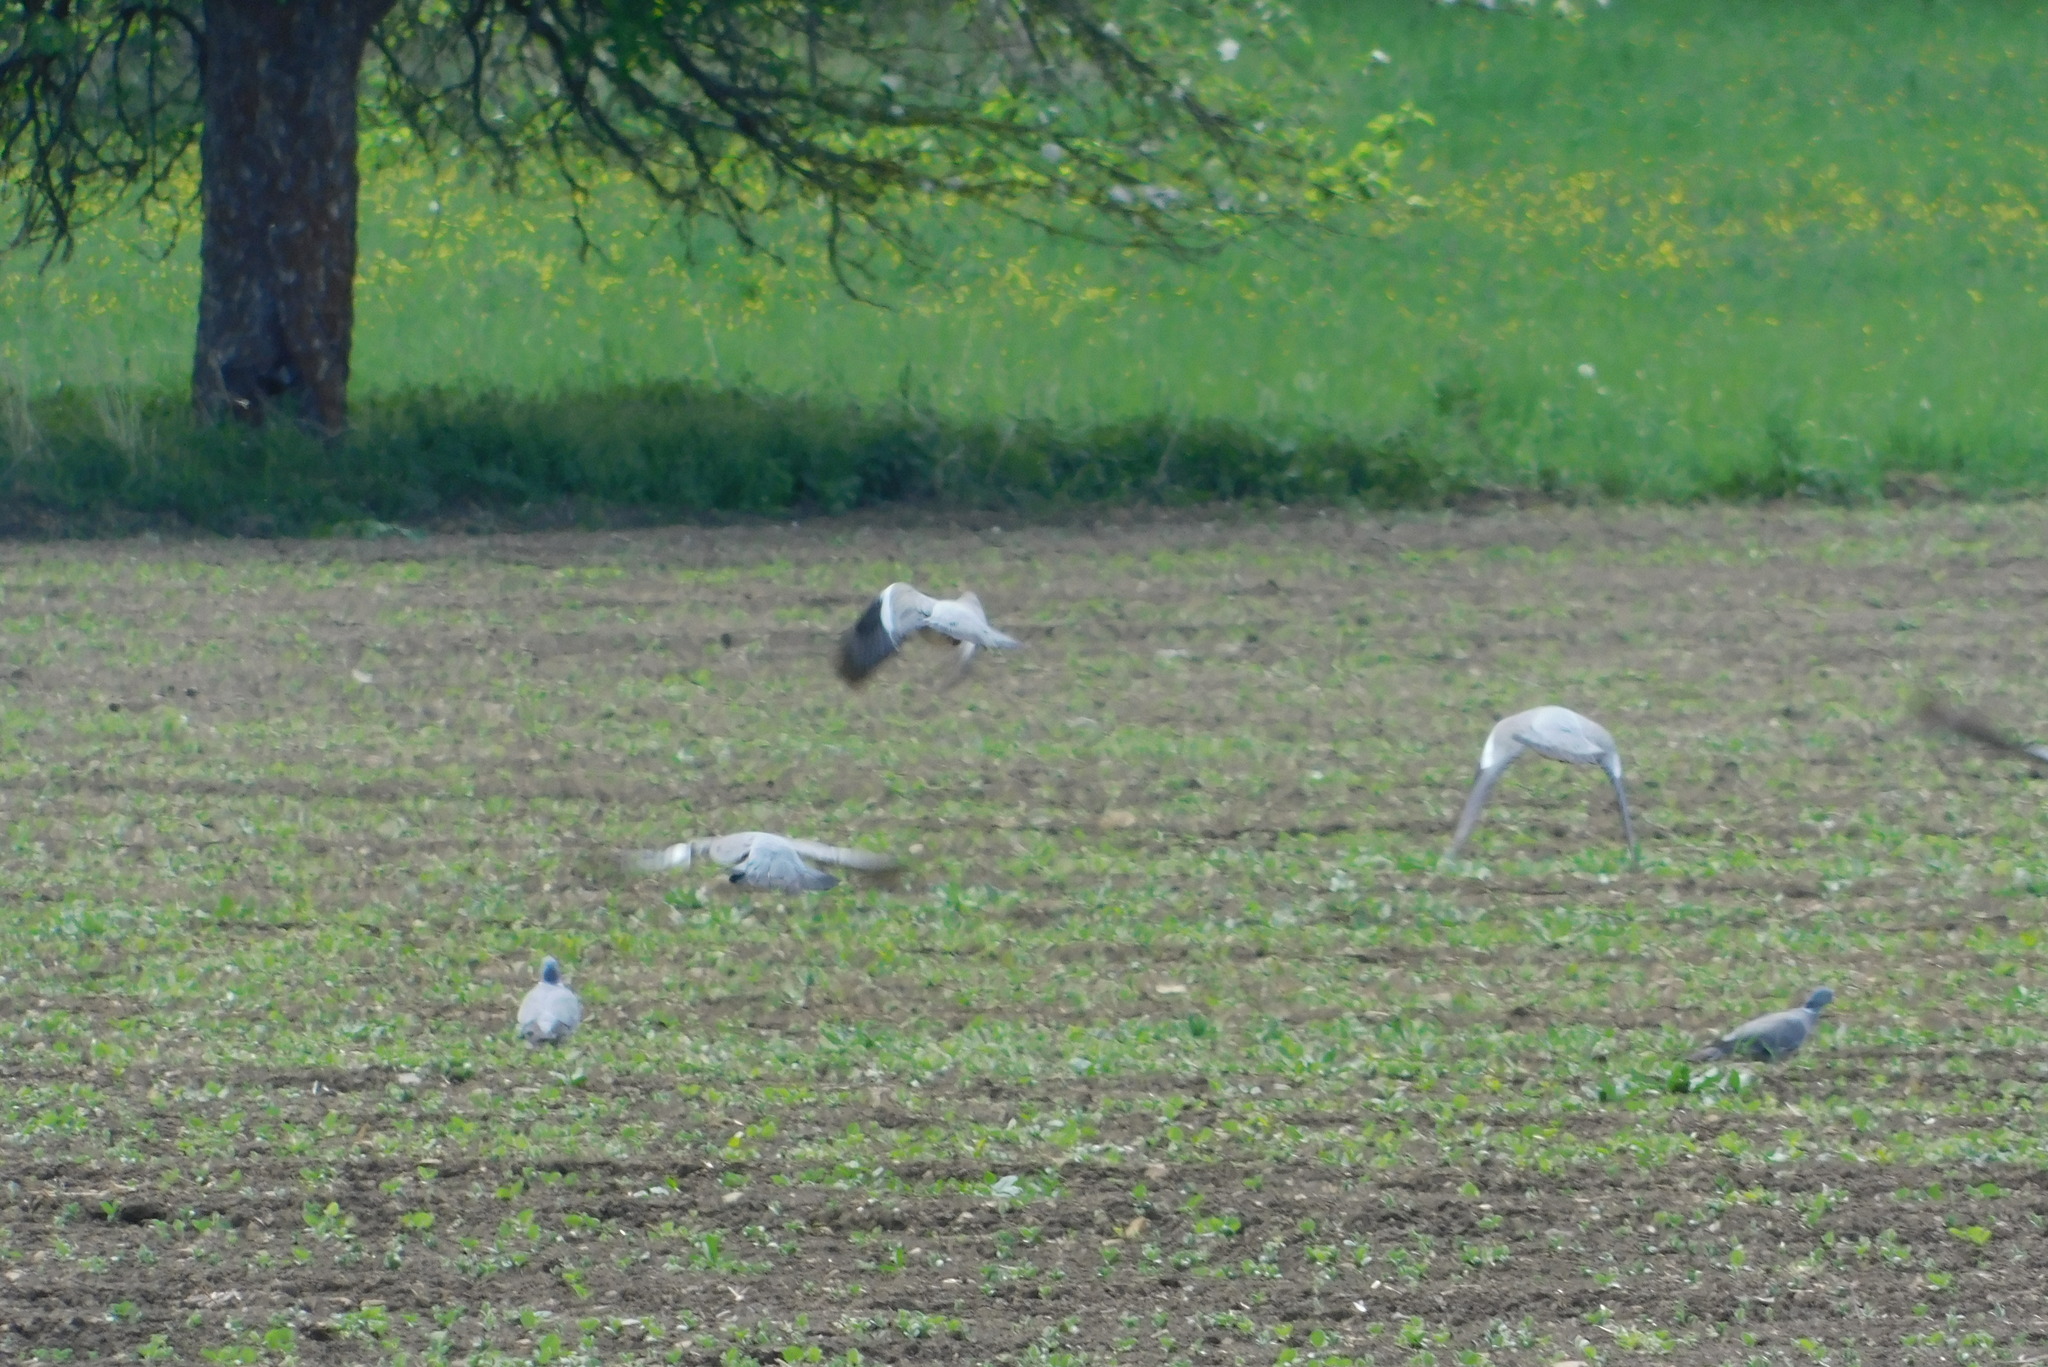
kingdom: Animalia
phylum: Chordata
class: Aves
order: Columbiformes
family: Columbidae
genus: Columba
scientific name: Columba palumbus
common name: Common wood pigeon
